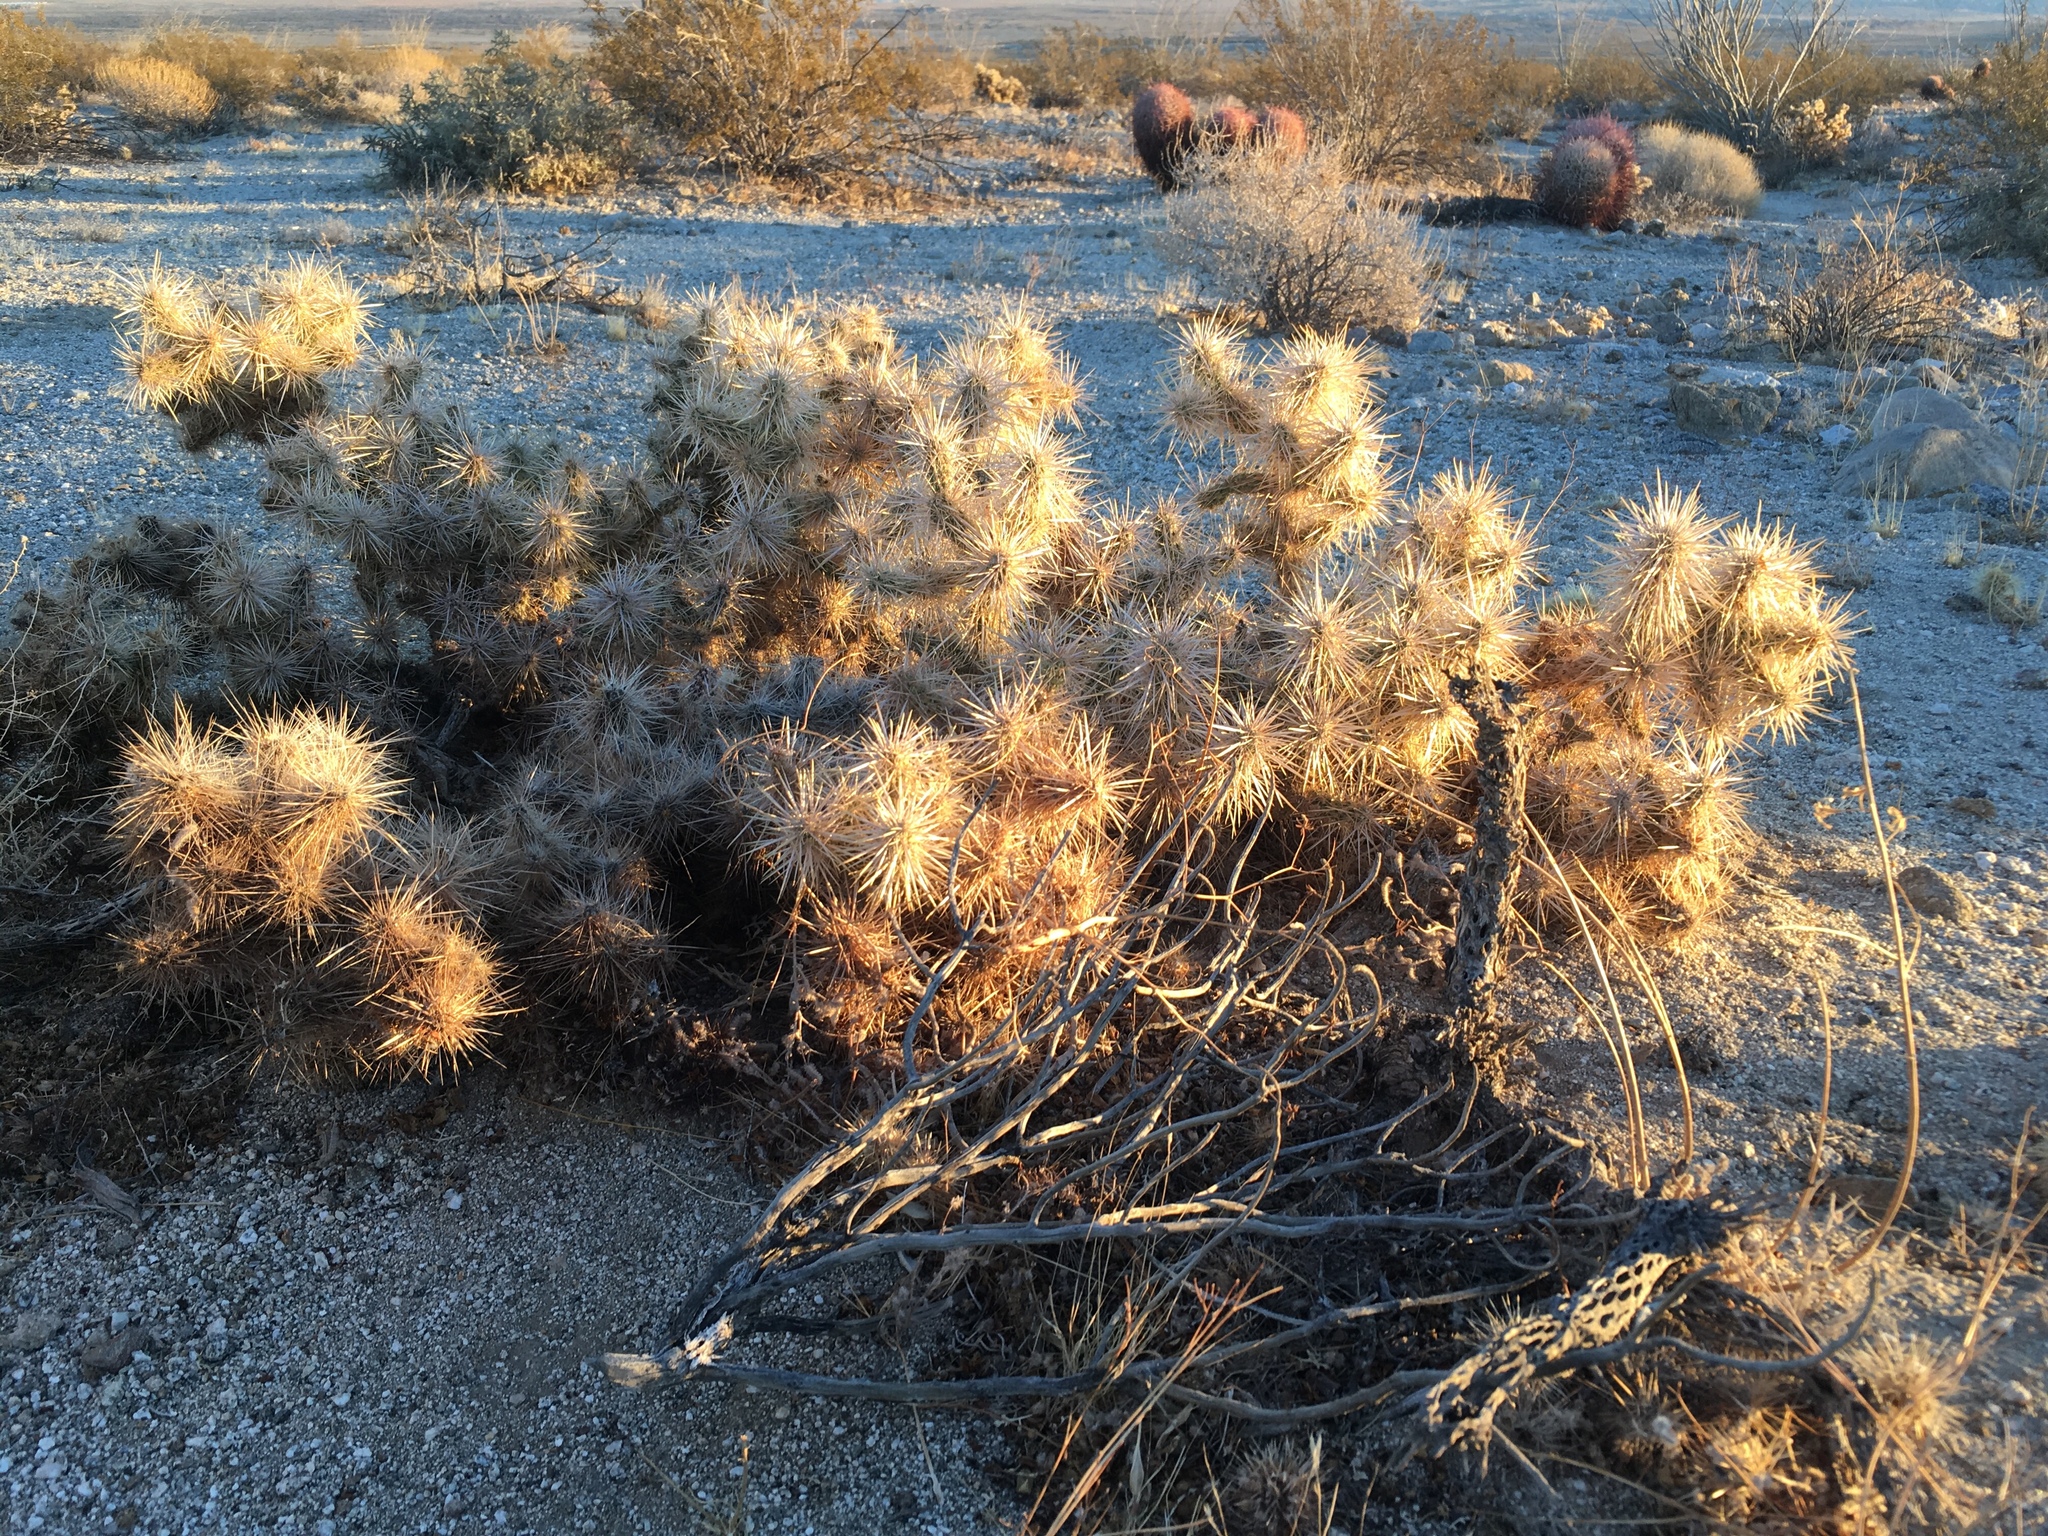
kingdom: Plantae
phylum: Tracheophyta
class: Magnoliopsida
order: Caryophyllales
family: Cactaceae
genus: Cylindropuntia
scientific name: Cylindropuntia echinocarpa
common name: Ground cholla
